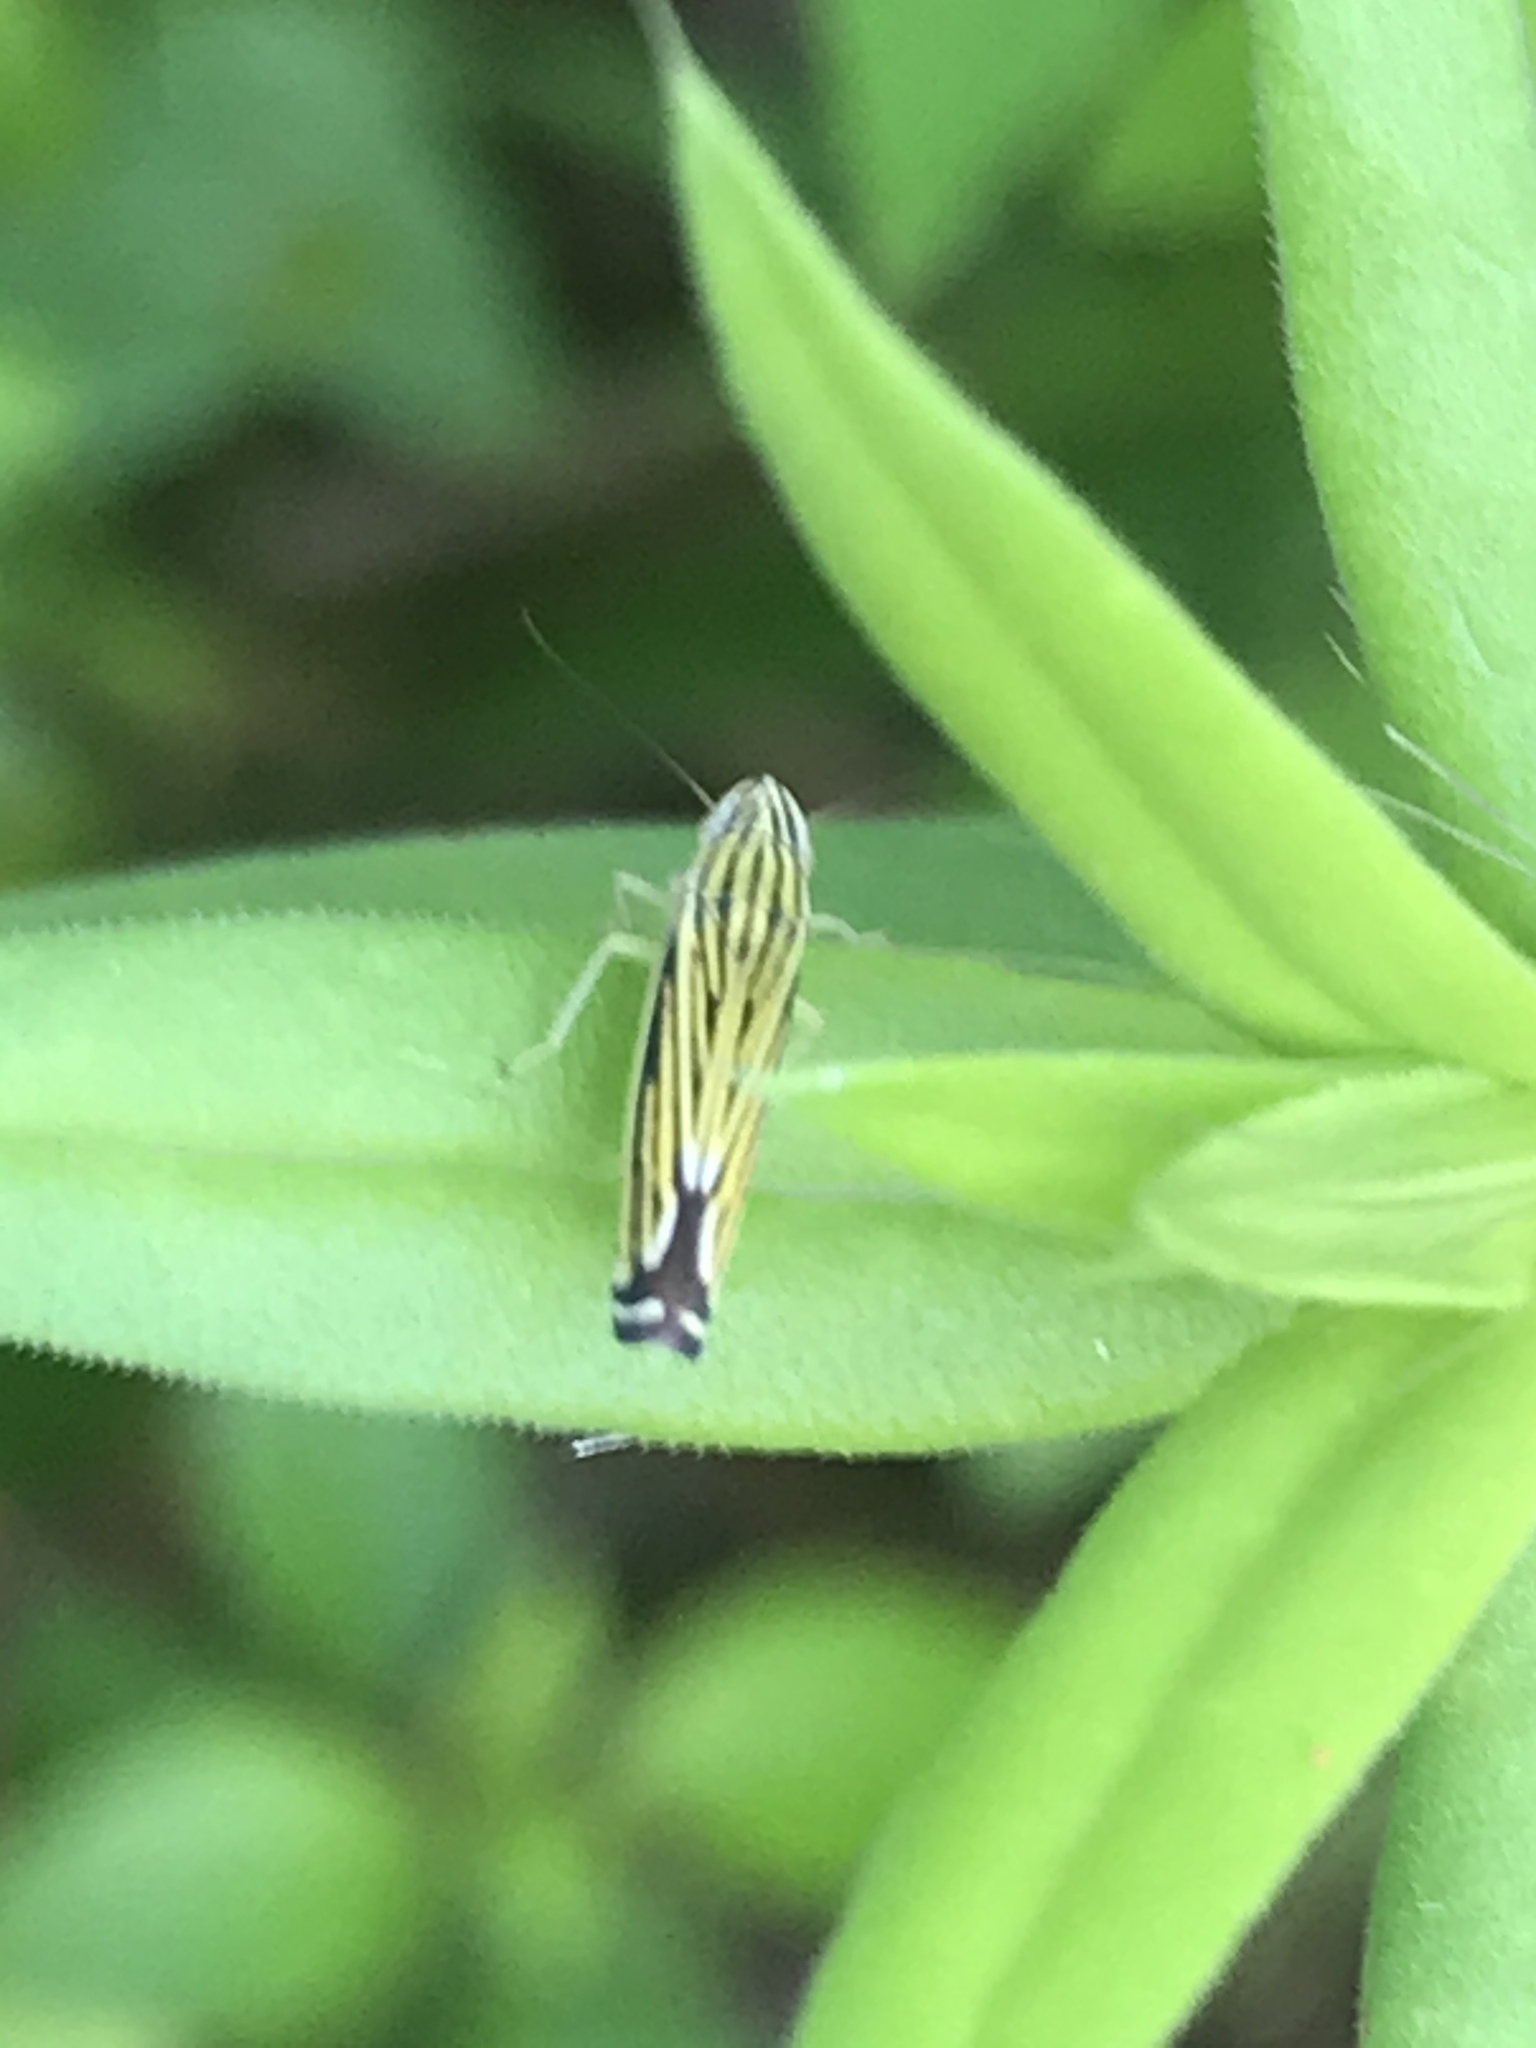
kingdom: Animalia
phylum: Arthropoda
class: Insecta
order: Hemiptera
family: Cicadellidae
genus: Sibovia
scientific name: Sibovia occatoria
